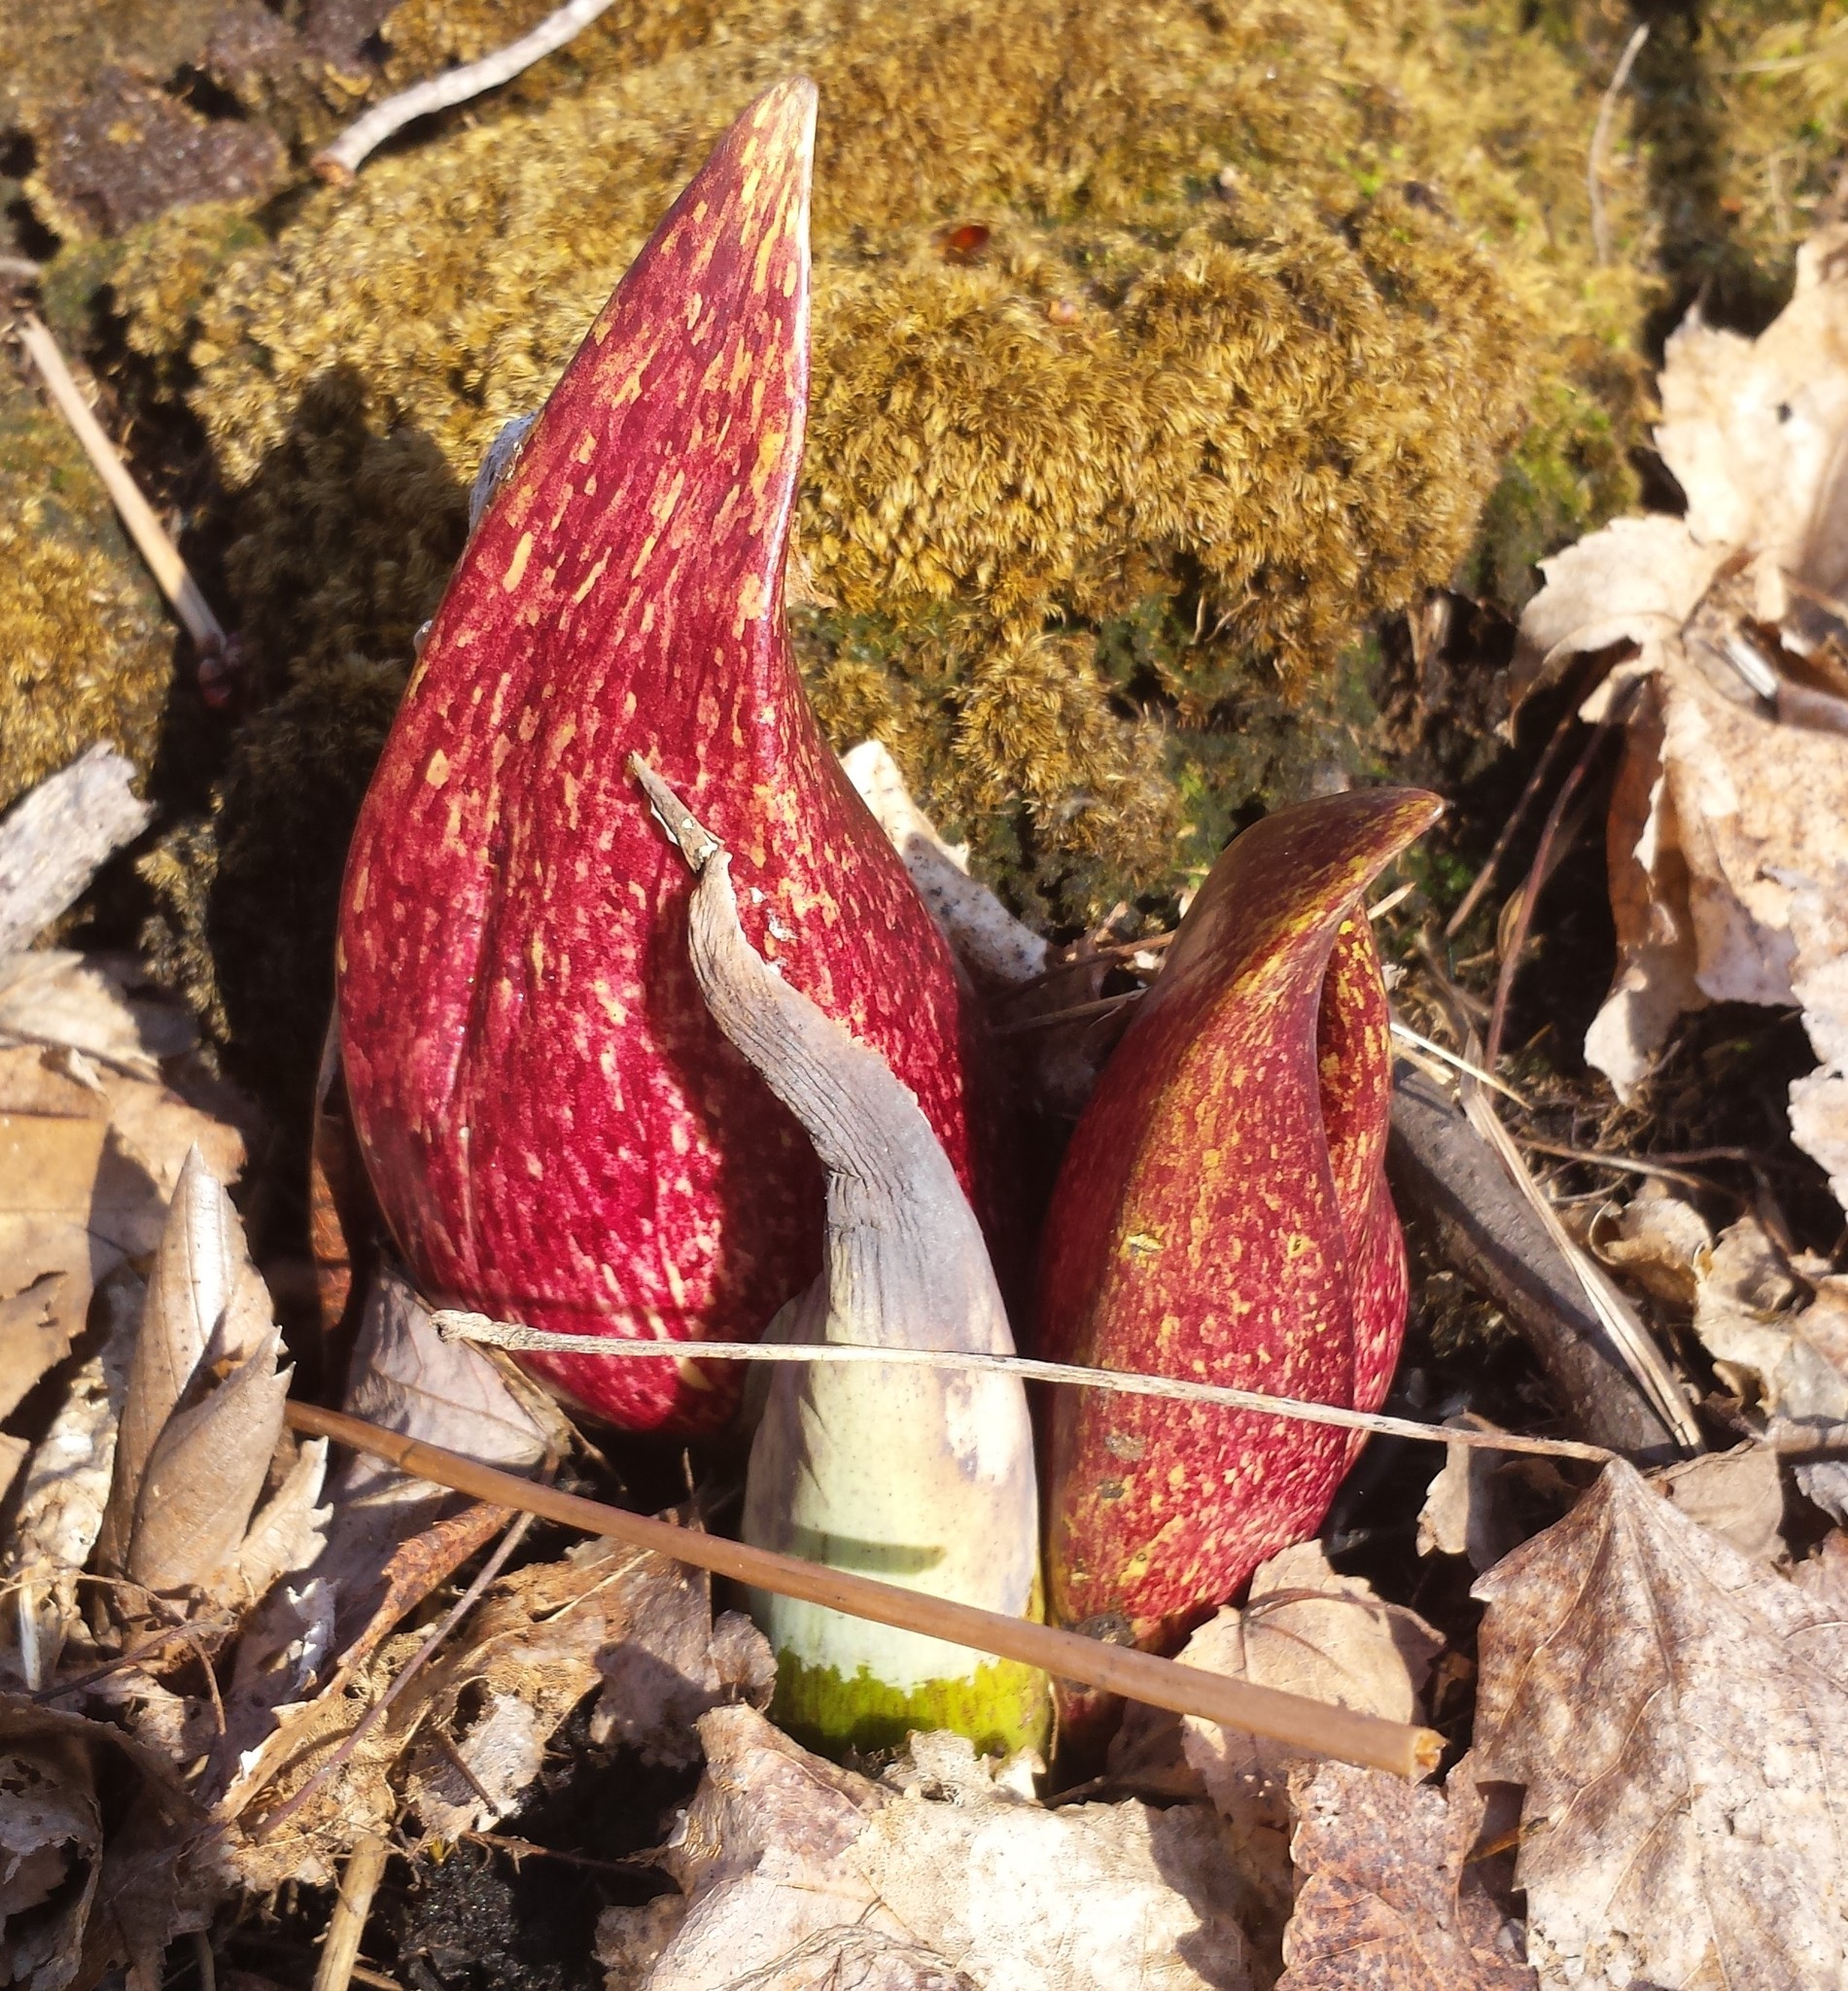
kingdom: Plantae
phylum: Tracheophyta
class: Liliopsida
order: Alismatales
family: Araceae
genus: Symplocarpus
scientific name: Symplocarpus foetidus
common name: Eastern skunk cabbage
